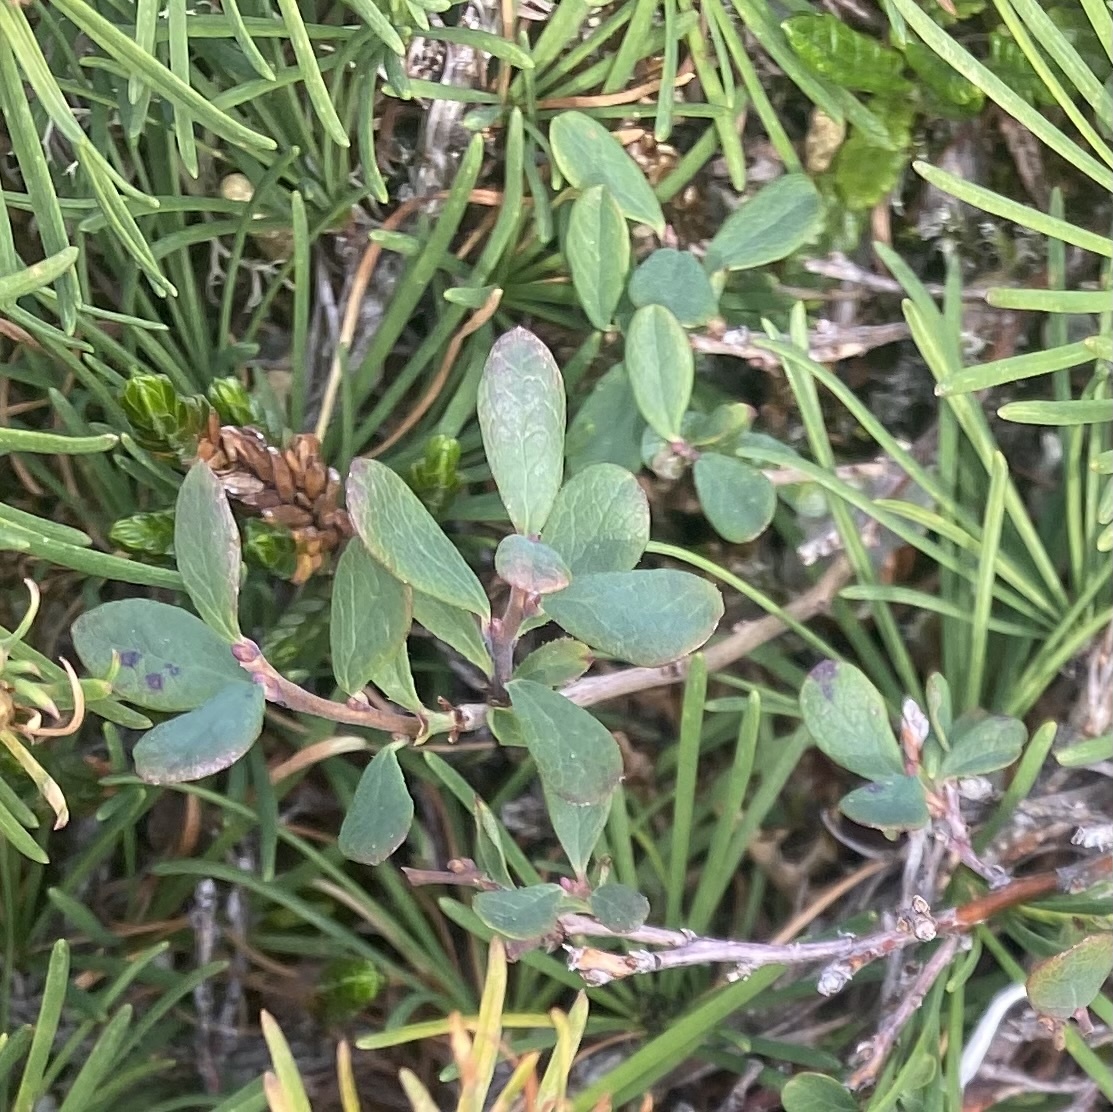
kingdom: Plantae
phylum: Tracheophyta
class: Magnoliopsida
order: Ericales
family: Ericaceae
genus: Vaccinium
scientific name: Vaccinium uliginosum
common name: Bog bilberry
